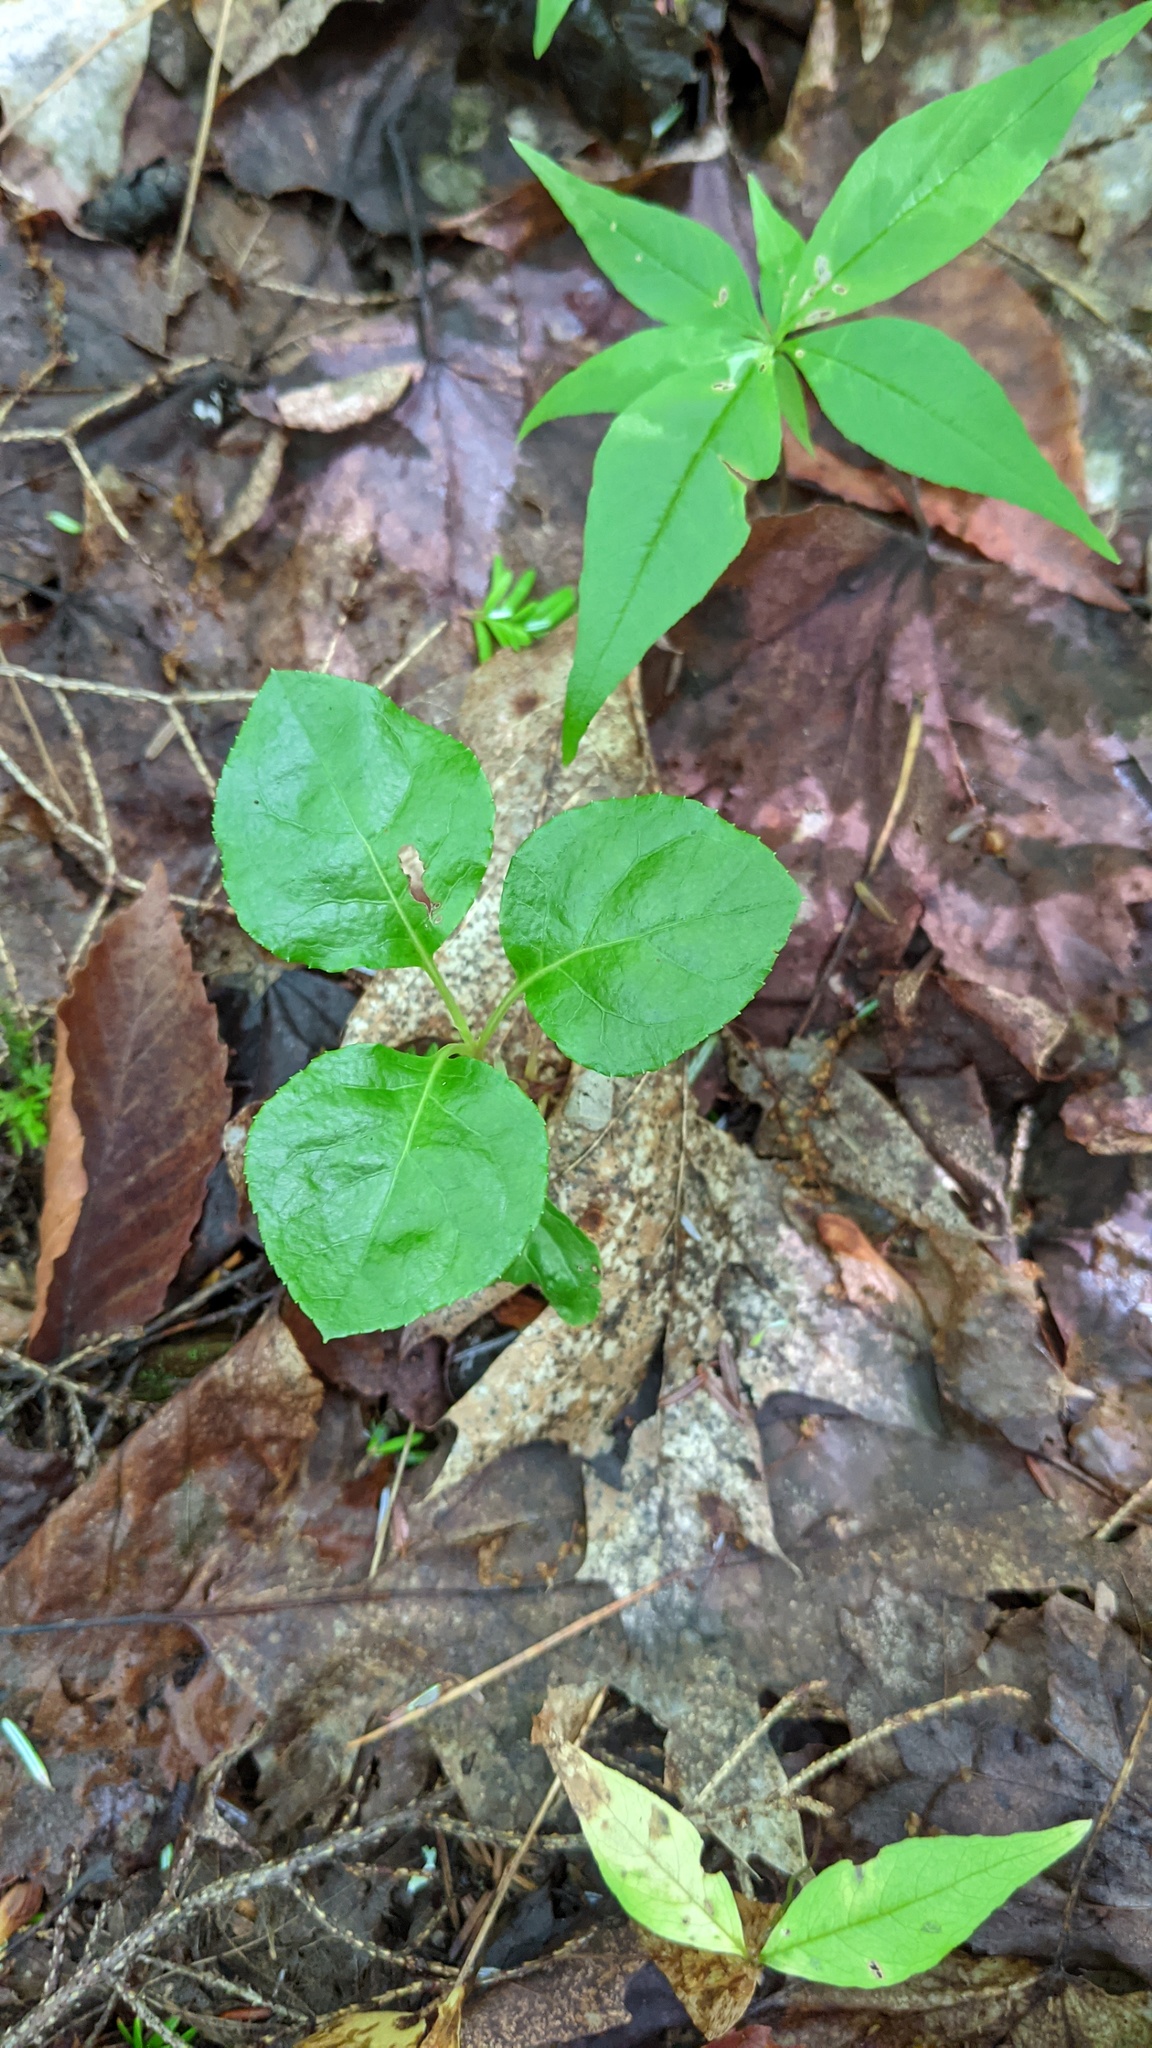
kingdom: Plantae
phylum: Tracheophyta
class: Magnoliopsida
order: Ericales
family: Ericaceae
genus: Orthilia
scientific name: Orthilia secunda
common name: One-sided orthilia
